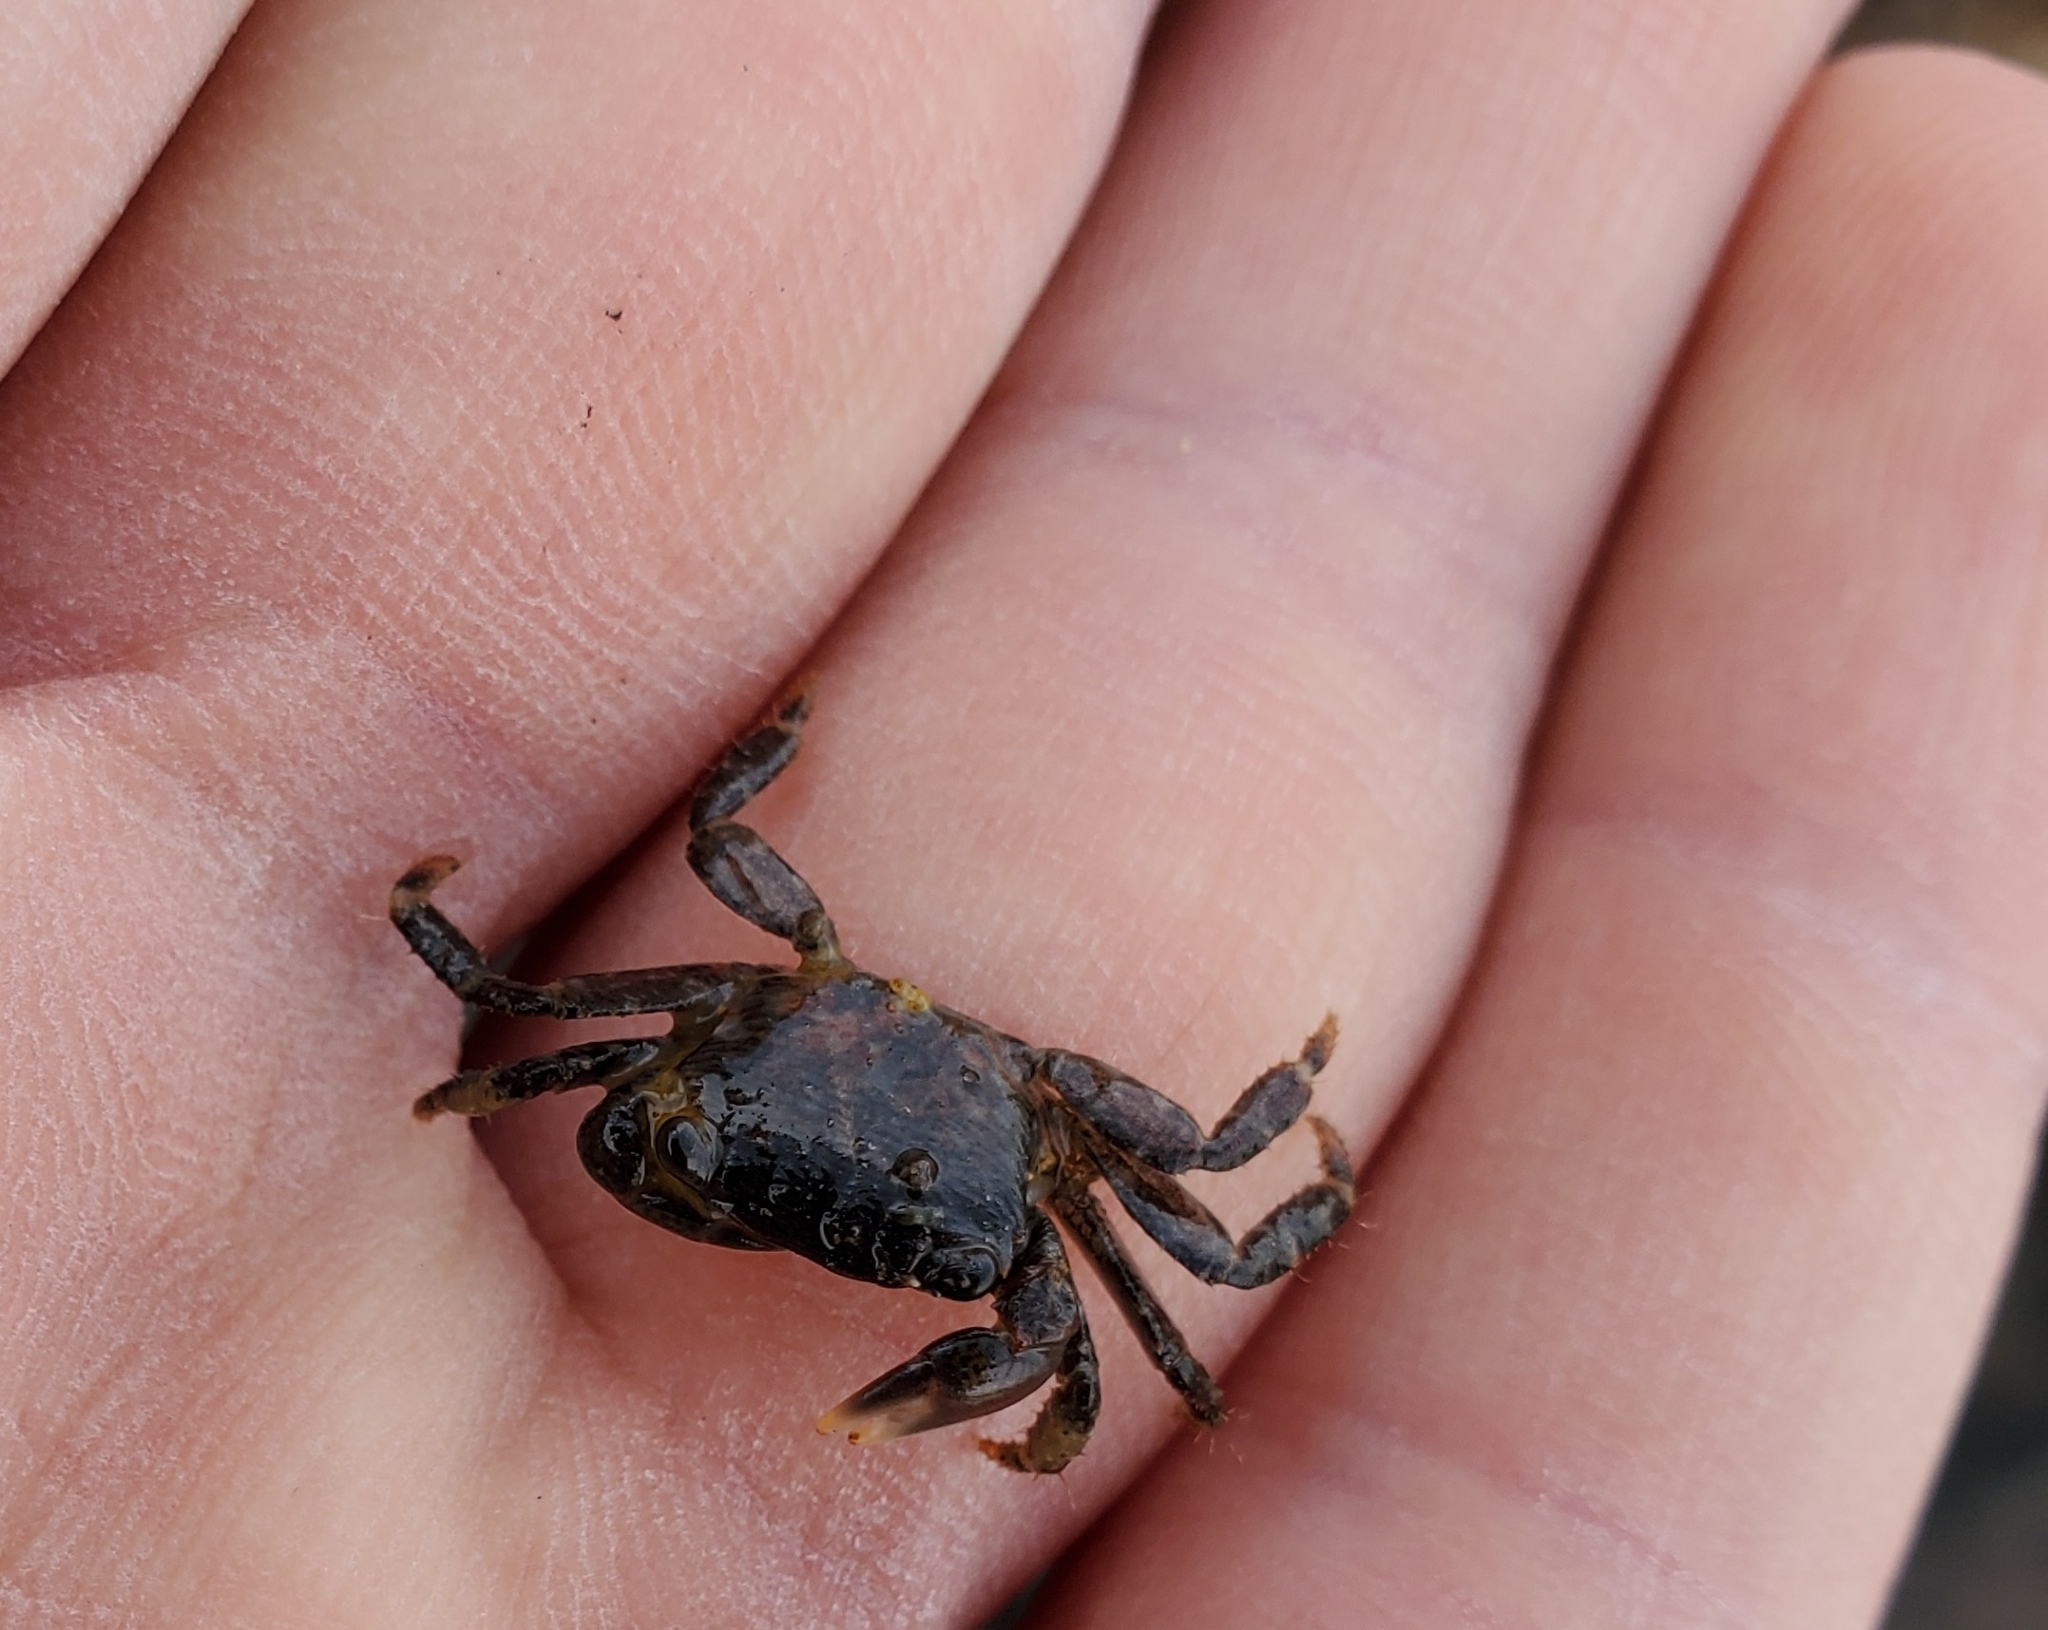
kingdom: Animalia
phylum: Arthropoda
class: Malacostraca
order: Decapoda
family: Grapsidae
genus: Pachygrapsus
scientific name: Pachygrapsus crassipes
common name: Striped shore crab
